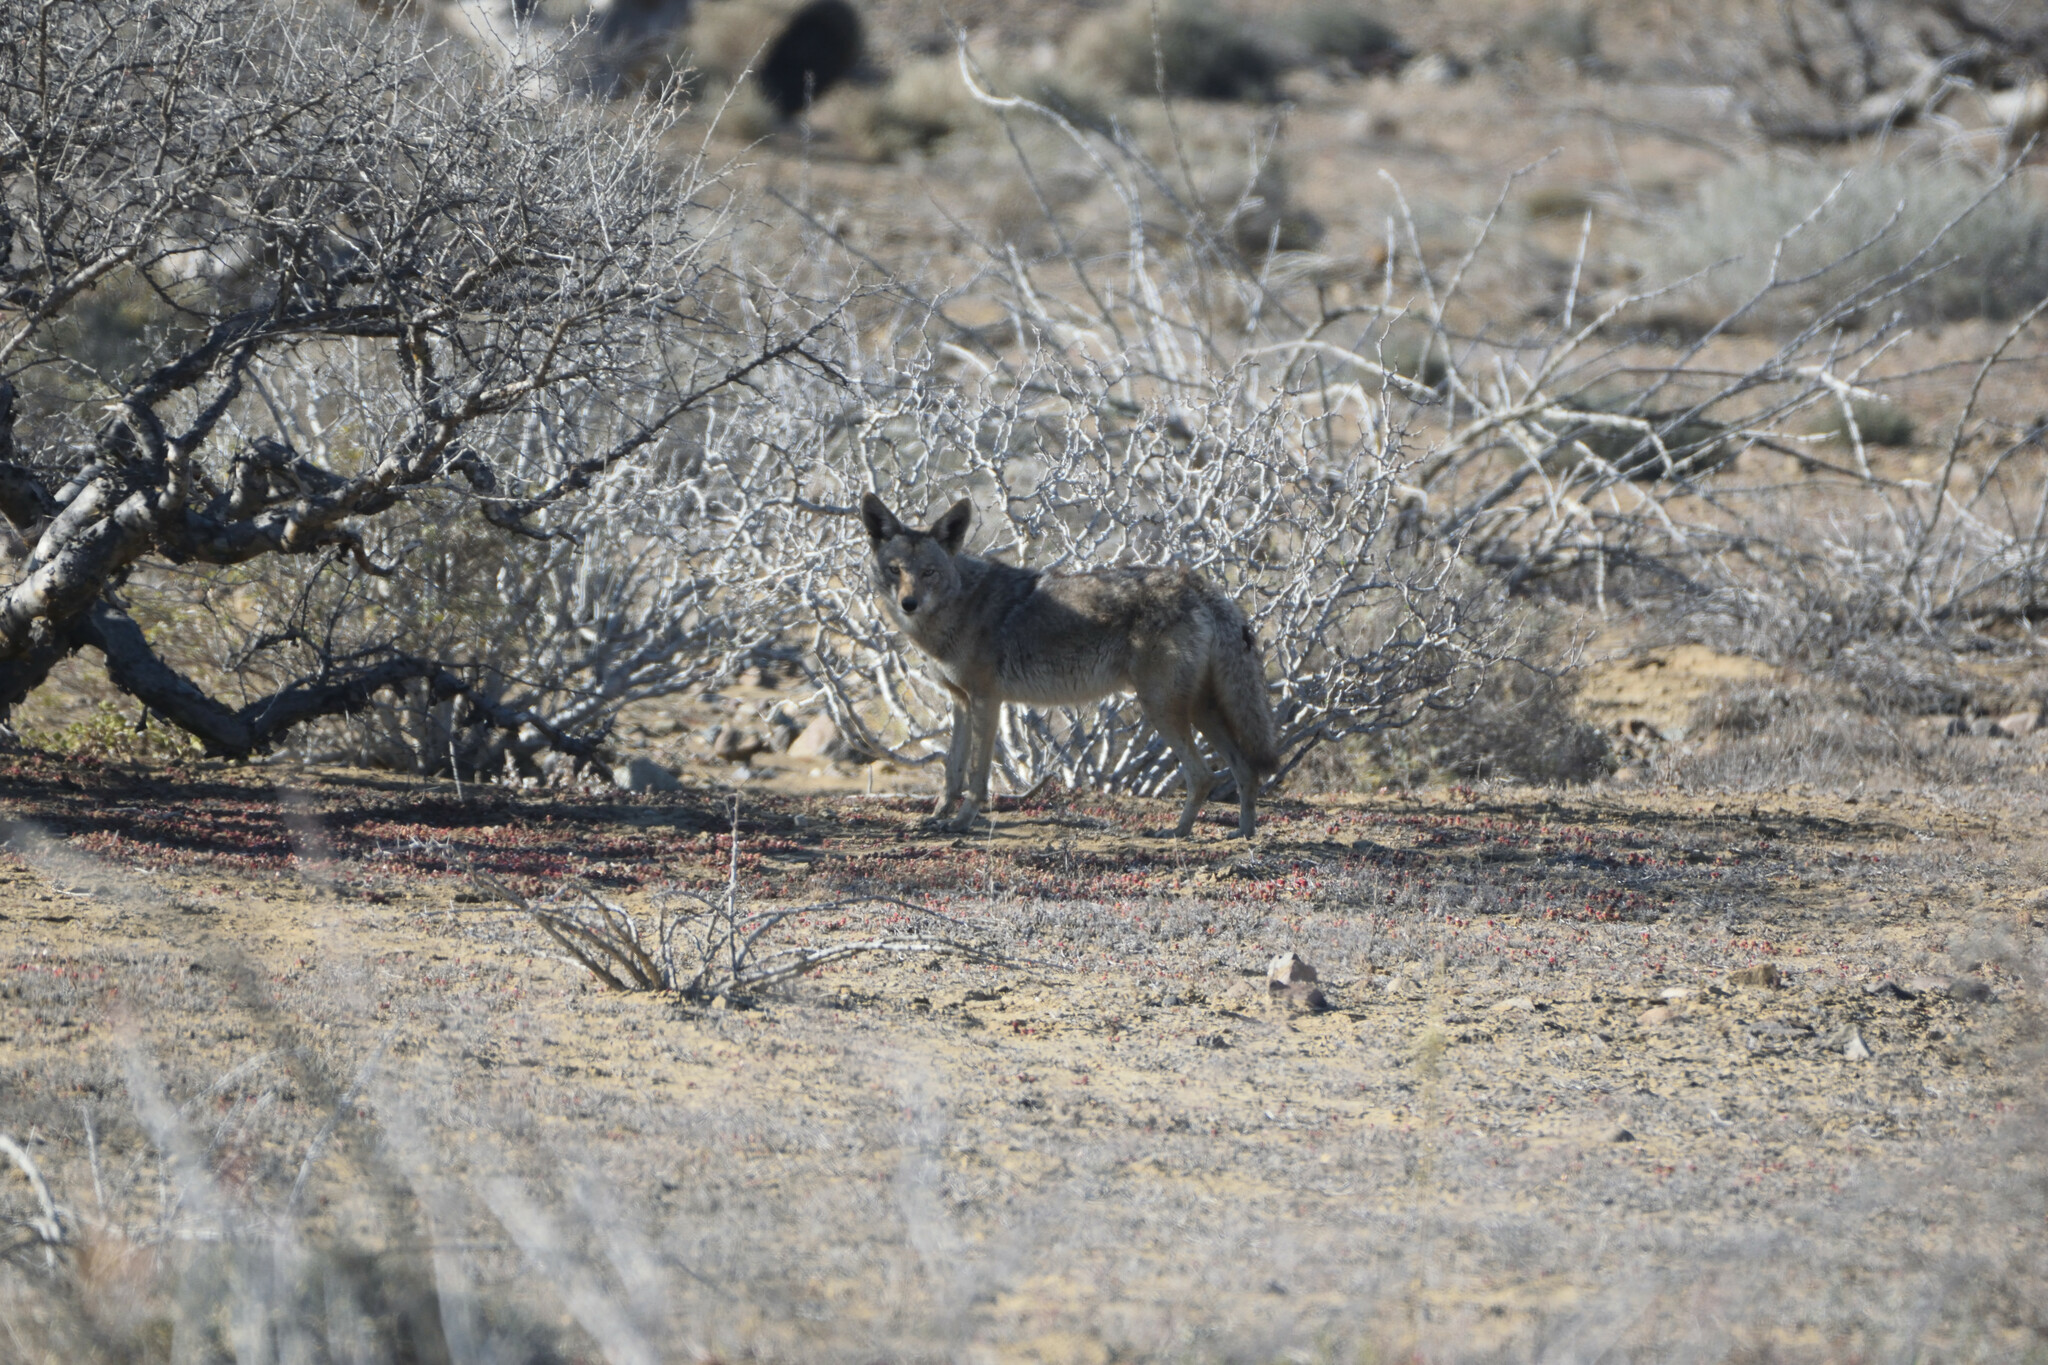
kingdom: Animalia
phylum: Chordata
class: Mammalia
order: Carnivora
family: Canidae
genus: Canis
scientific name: Canis latrans
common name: Coyote
